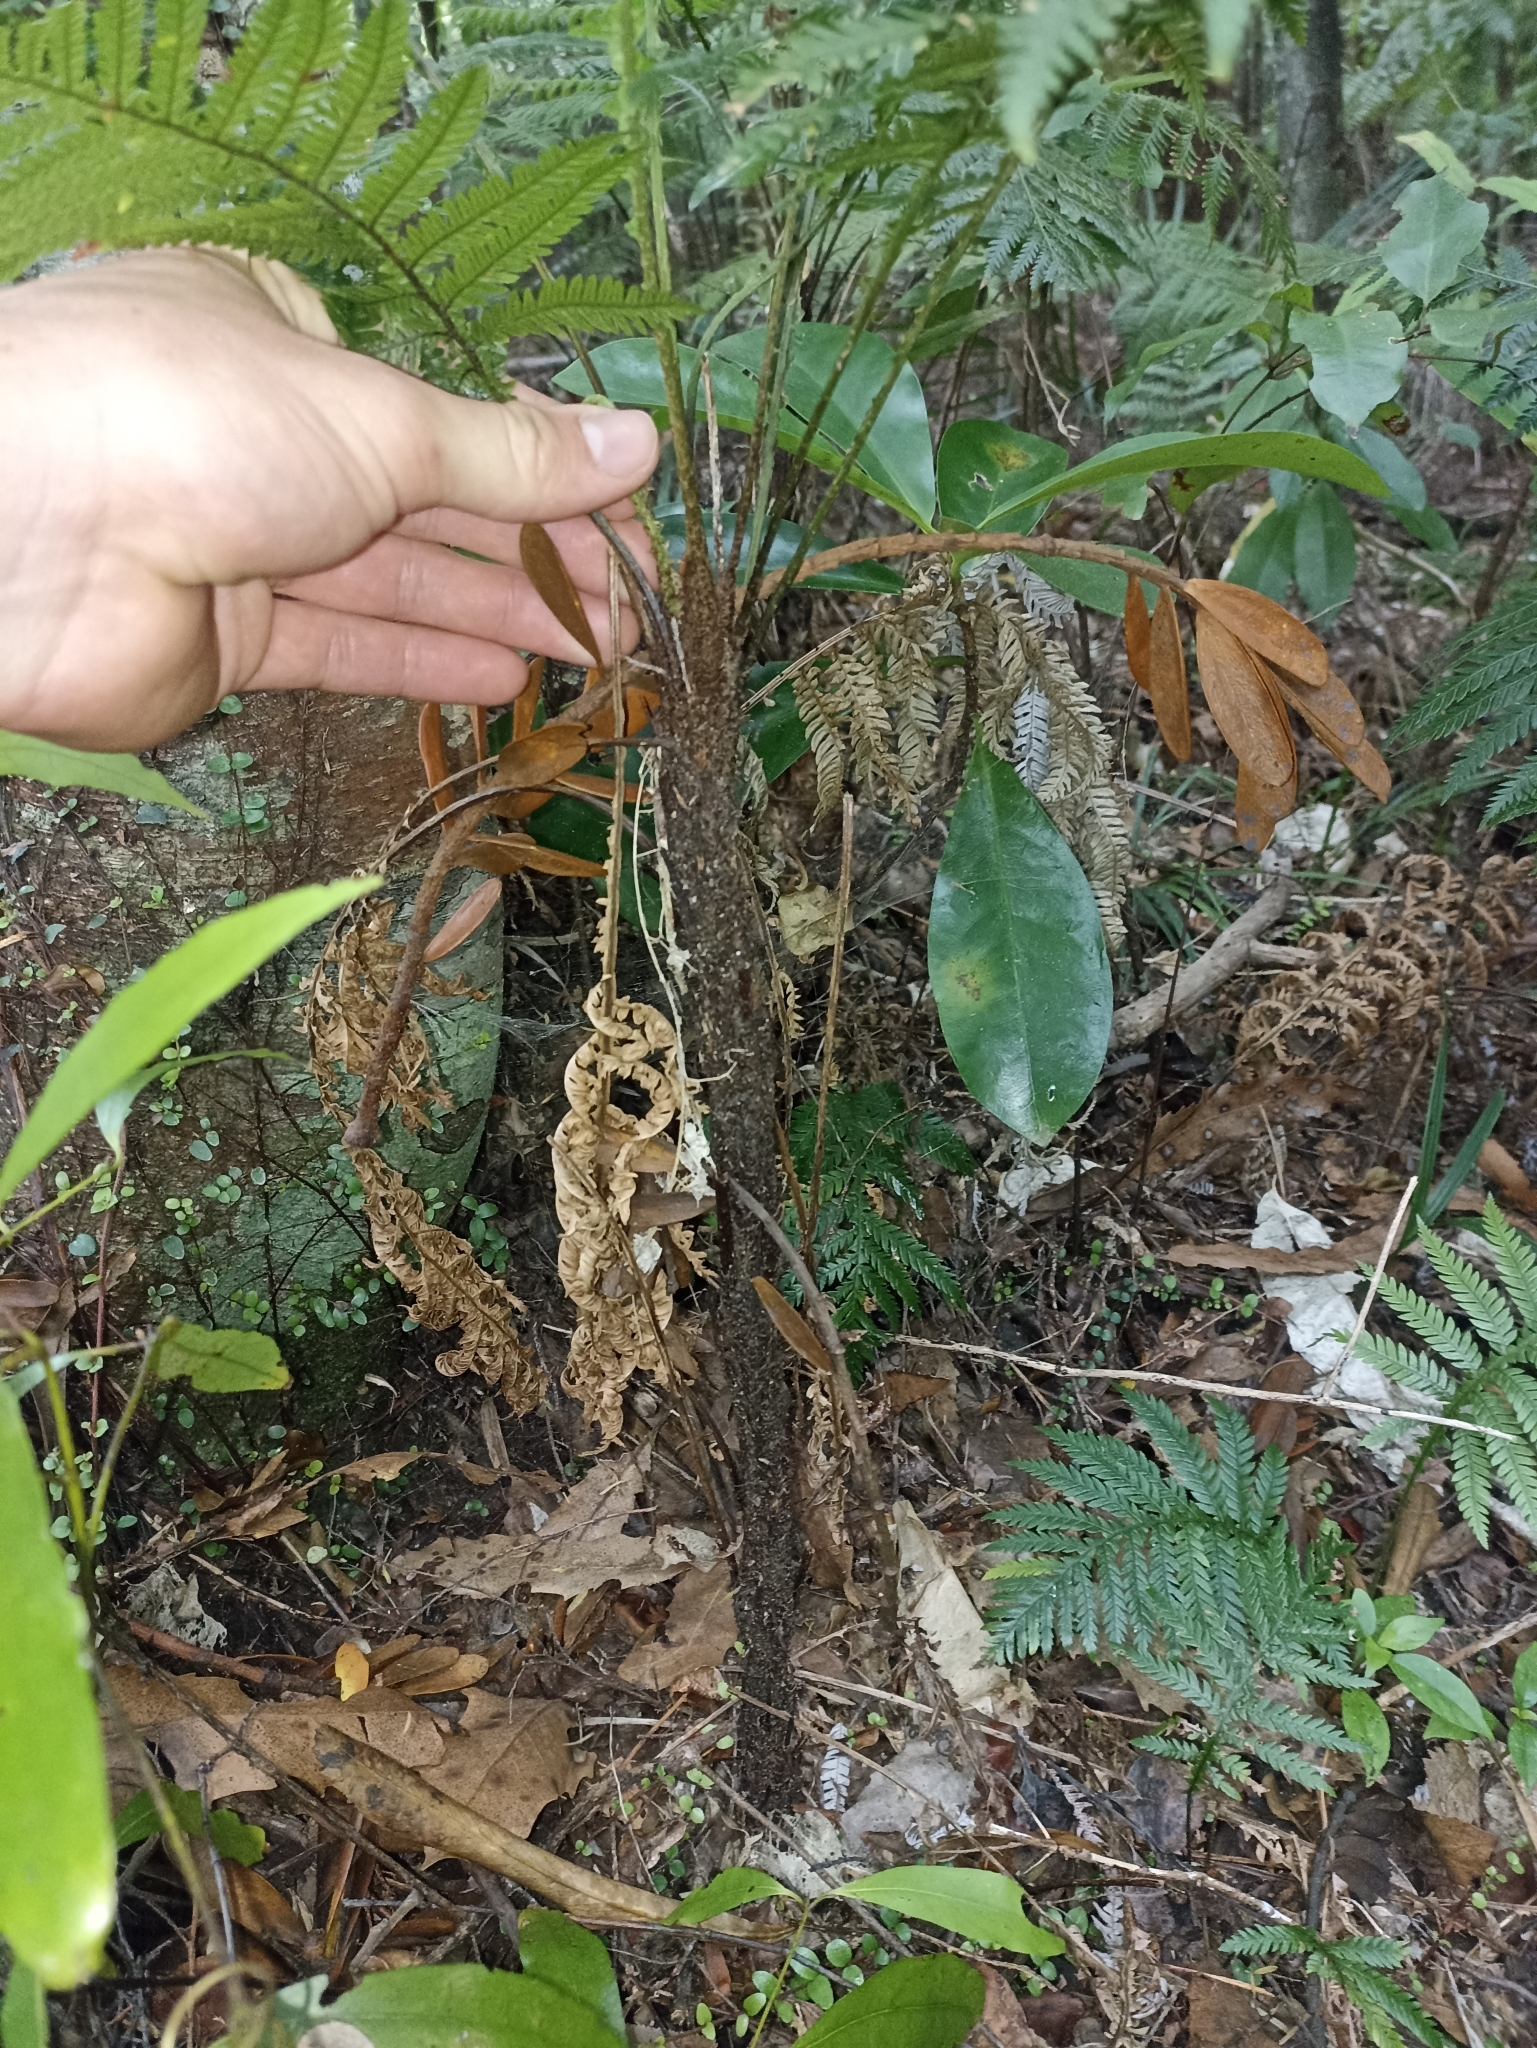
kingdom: Plantae
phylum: Tracheophyta
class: Polypodiopsida
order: Polypodiales
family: Blechnaceae
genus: Diploblechnum
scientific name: Diploblechnum fraseri
